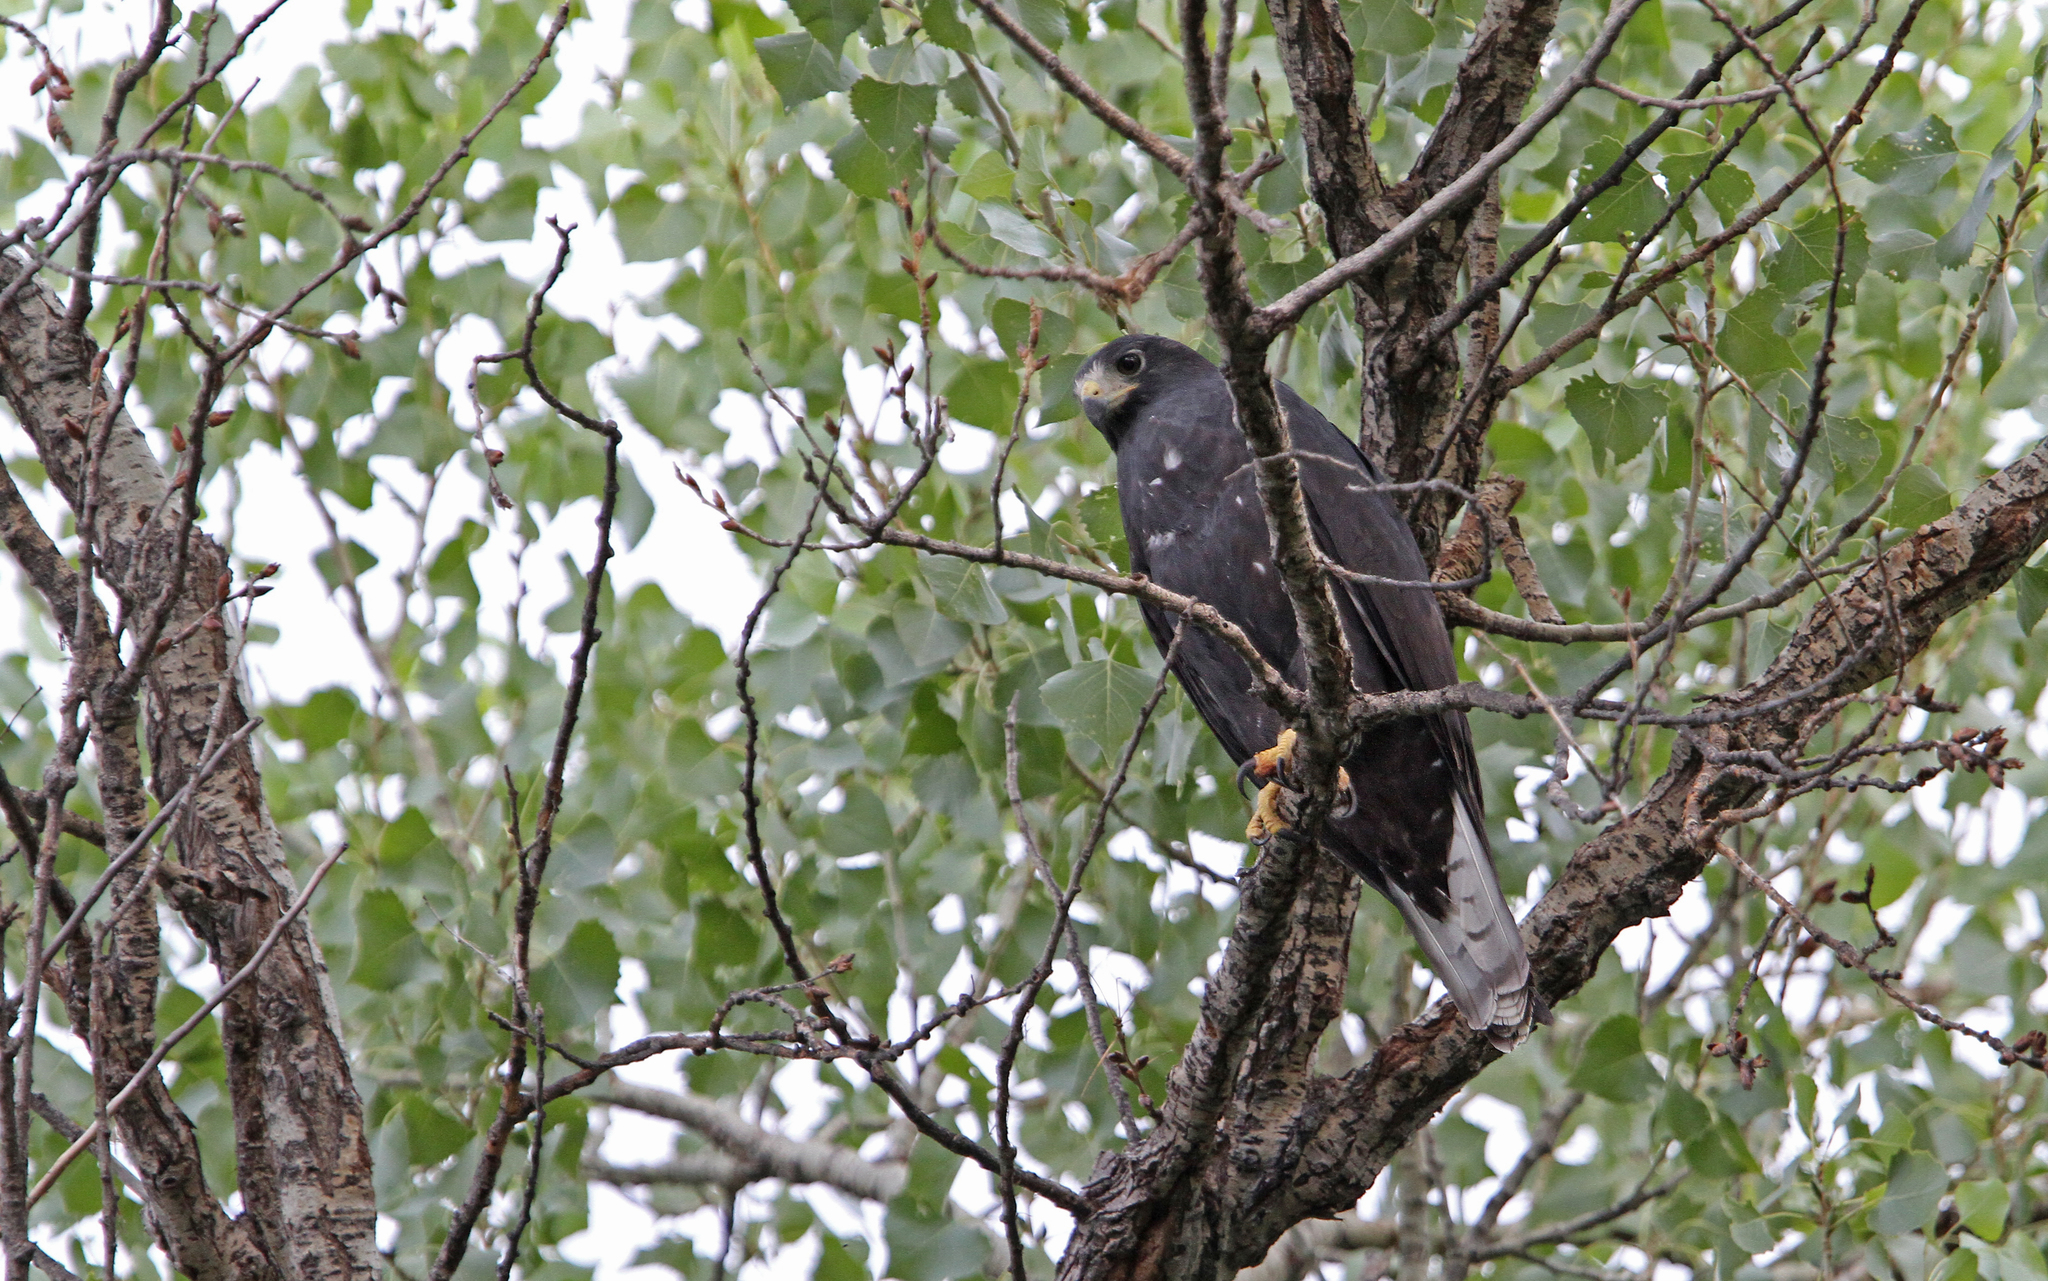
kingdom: Animalia
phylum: Chordata
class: Aves
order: Accipitriformes
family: Accipitridae
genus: Buteo
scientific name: Buteo albonotatus
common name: Zone-tailed hawk
